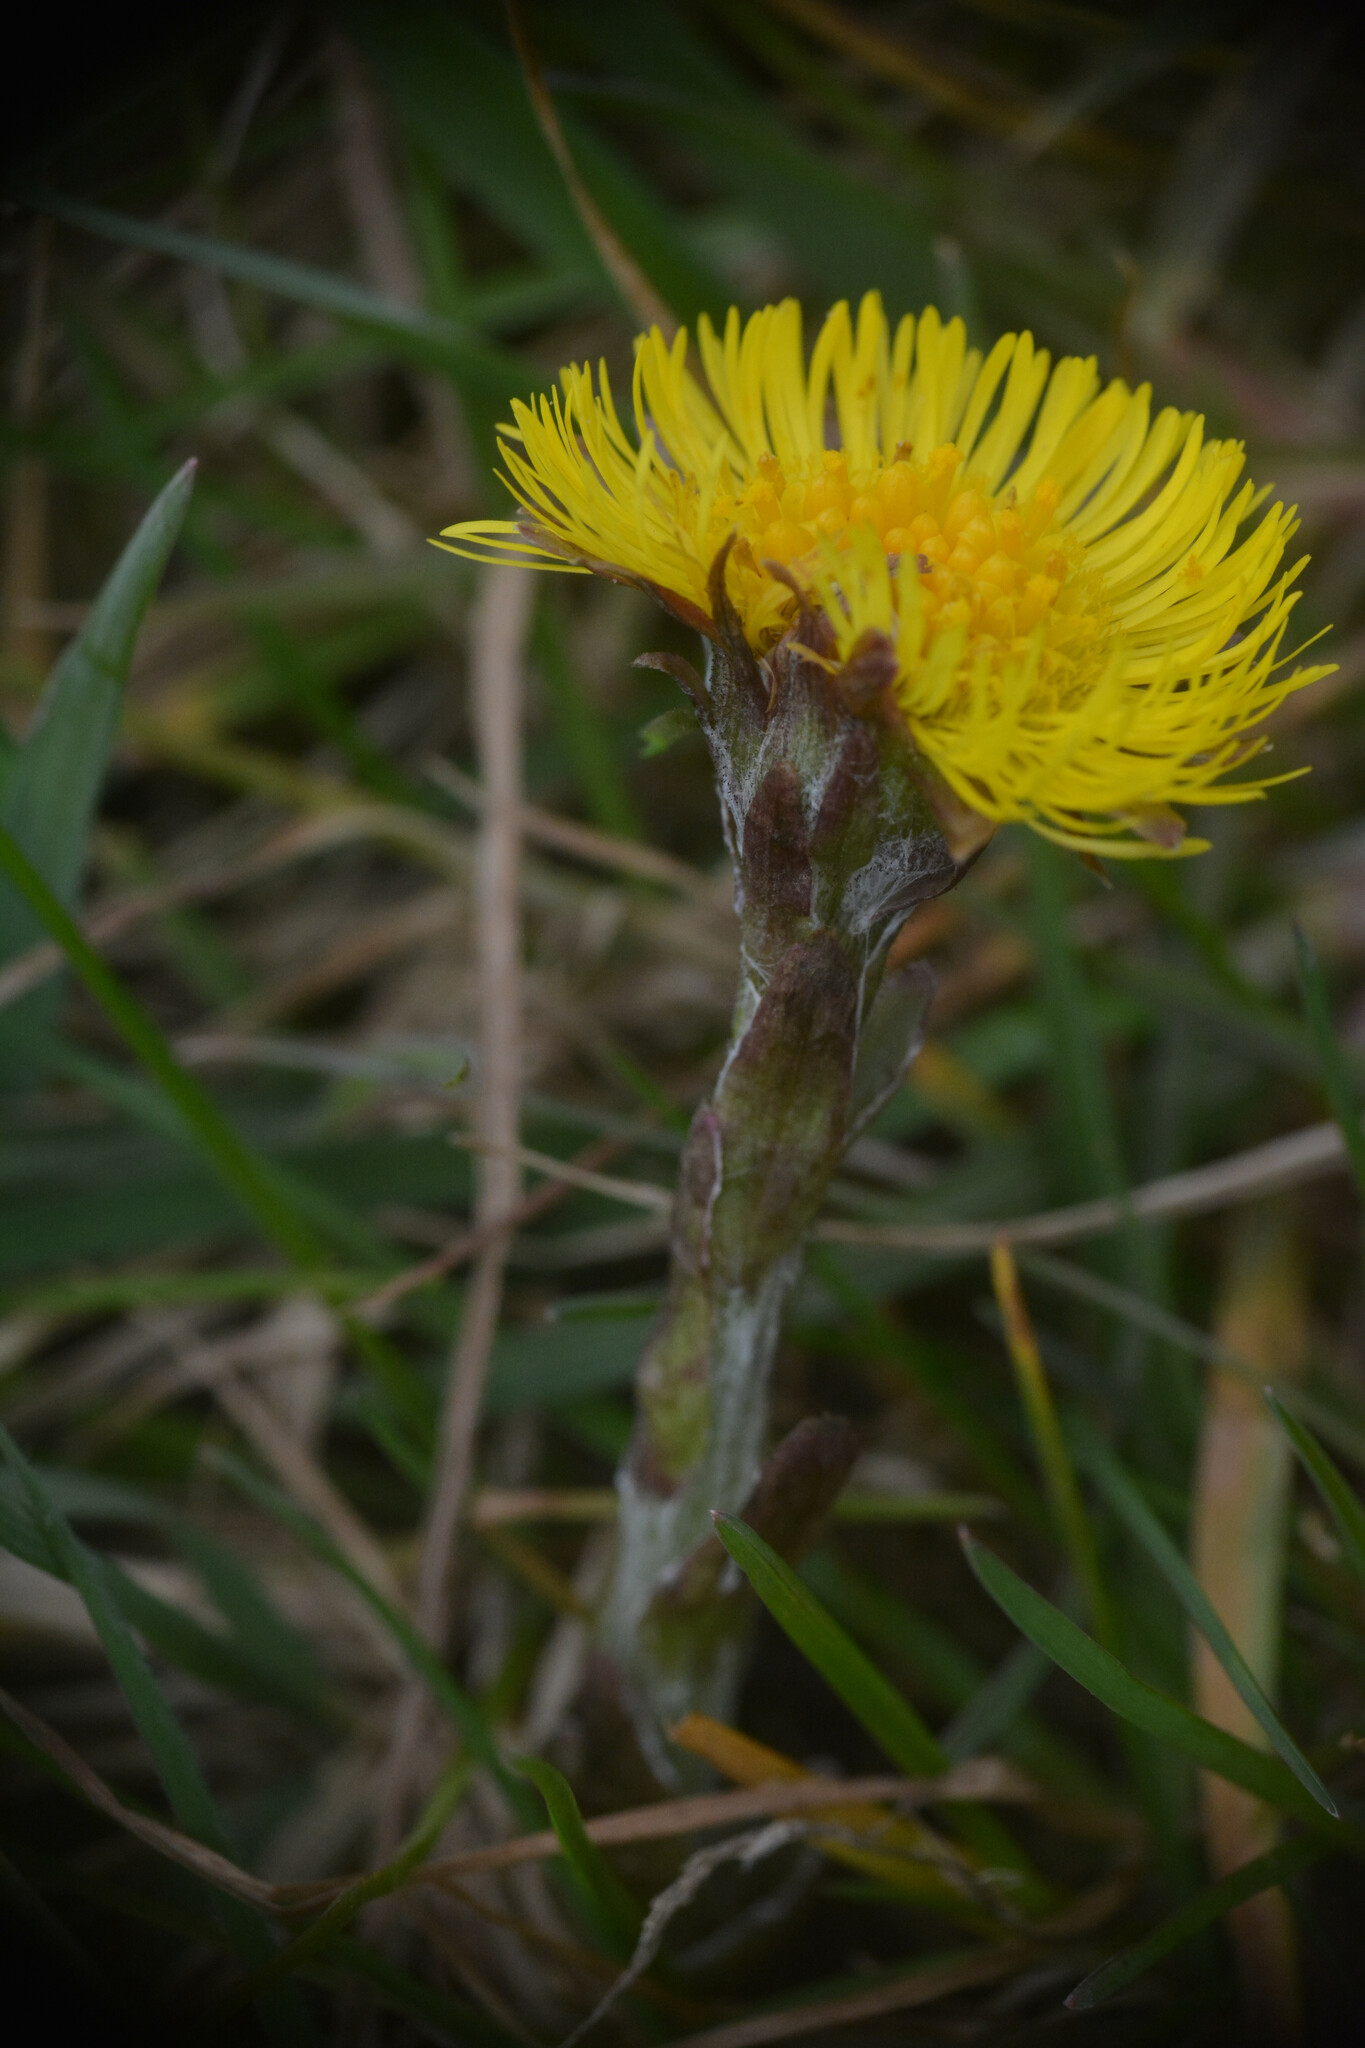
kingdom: Plantae
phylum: Tracheophyta
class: Magnoliopsida
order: Asterales
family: Asteraceae
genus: Tussilago
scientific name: Tussilago farfara
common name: Coltsfoot
